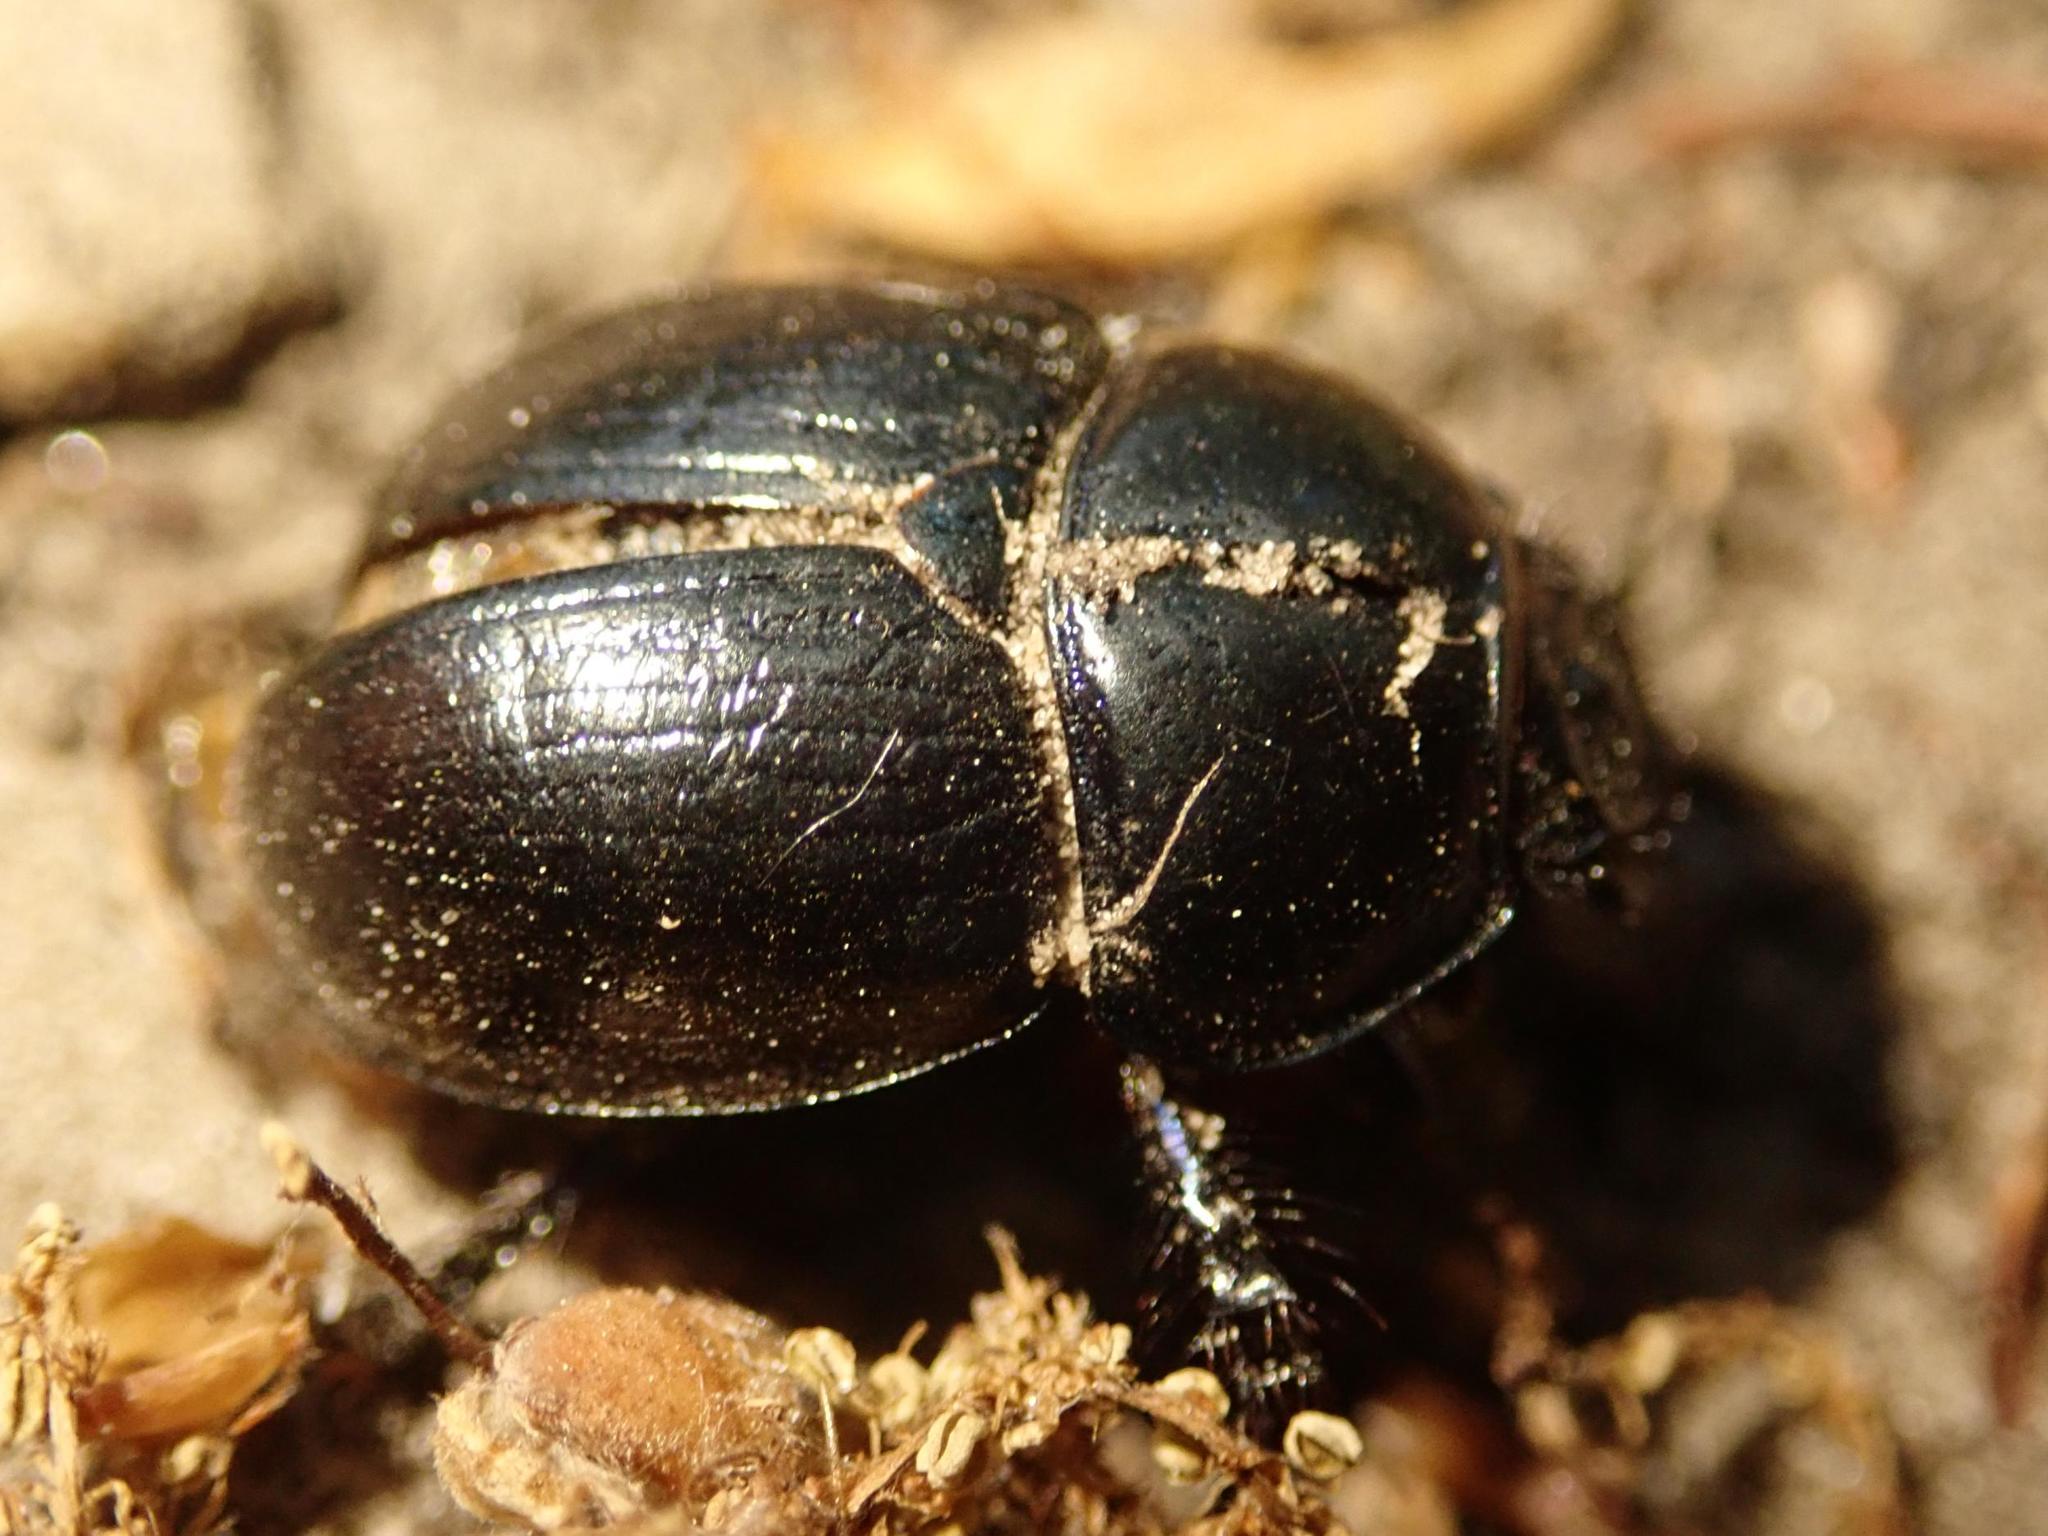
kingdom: Animalia
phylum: Arthropoda
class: Insecta
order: Coleoptera
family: Geotrupidae
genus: Anoplotrupes
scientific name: Anoplotrupes stercorosus
